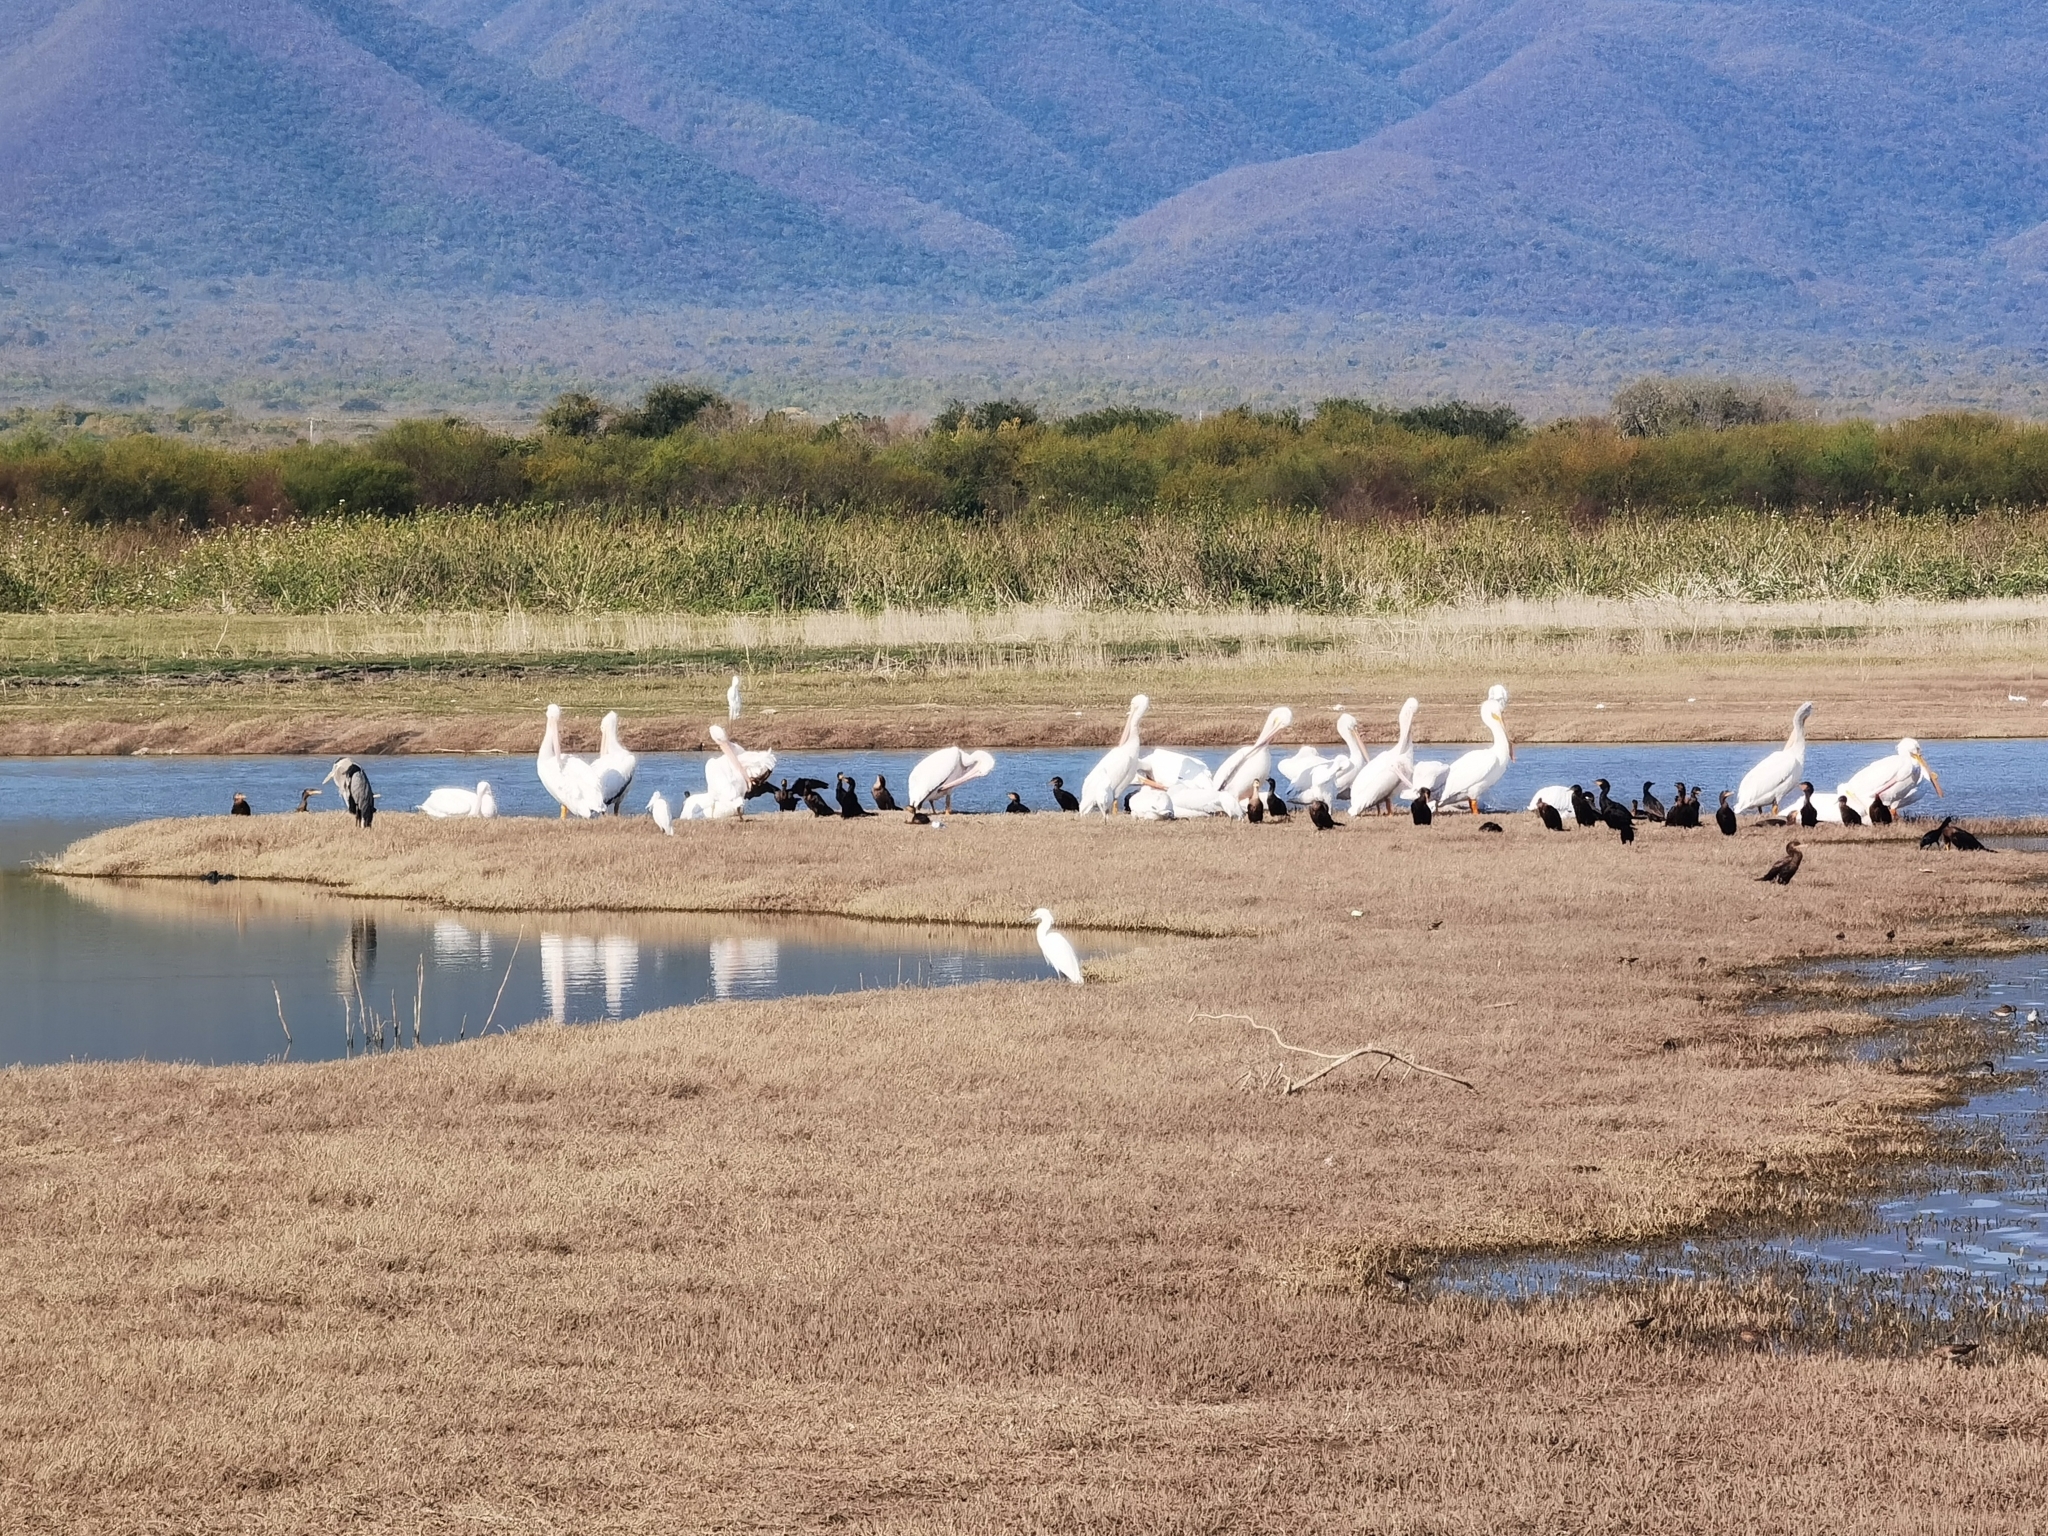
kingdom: Animalia
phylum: Chordata
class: Aves
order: Pelecaniformes
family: Pelecanidae
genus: Pelecanus
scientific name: Pelecanus erythrorhynchos
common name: American white pelican
